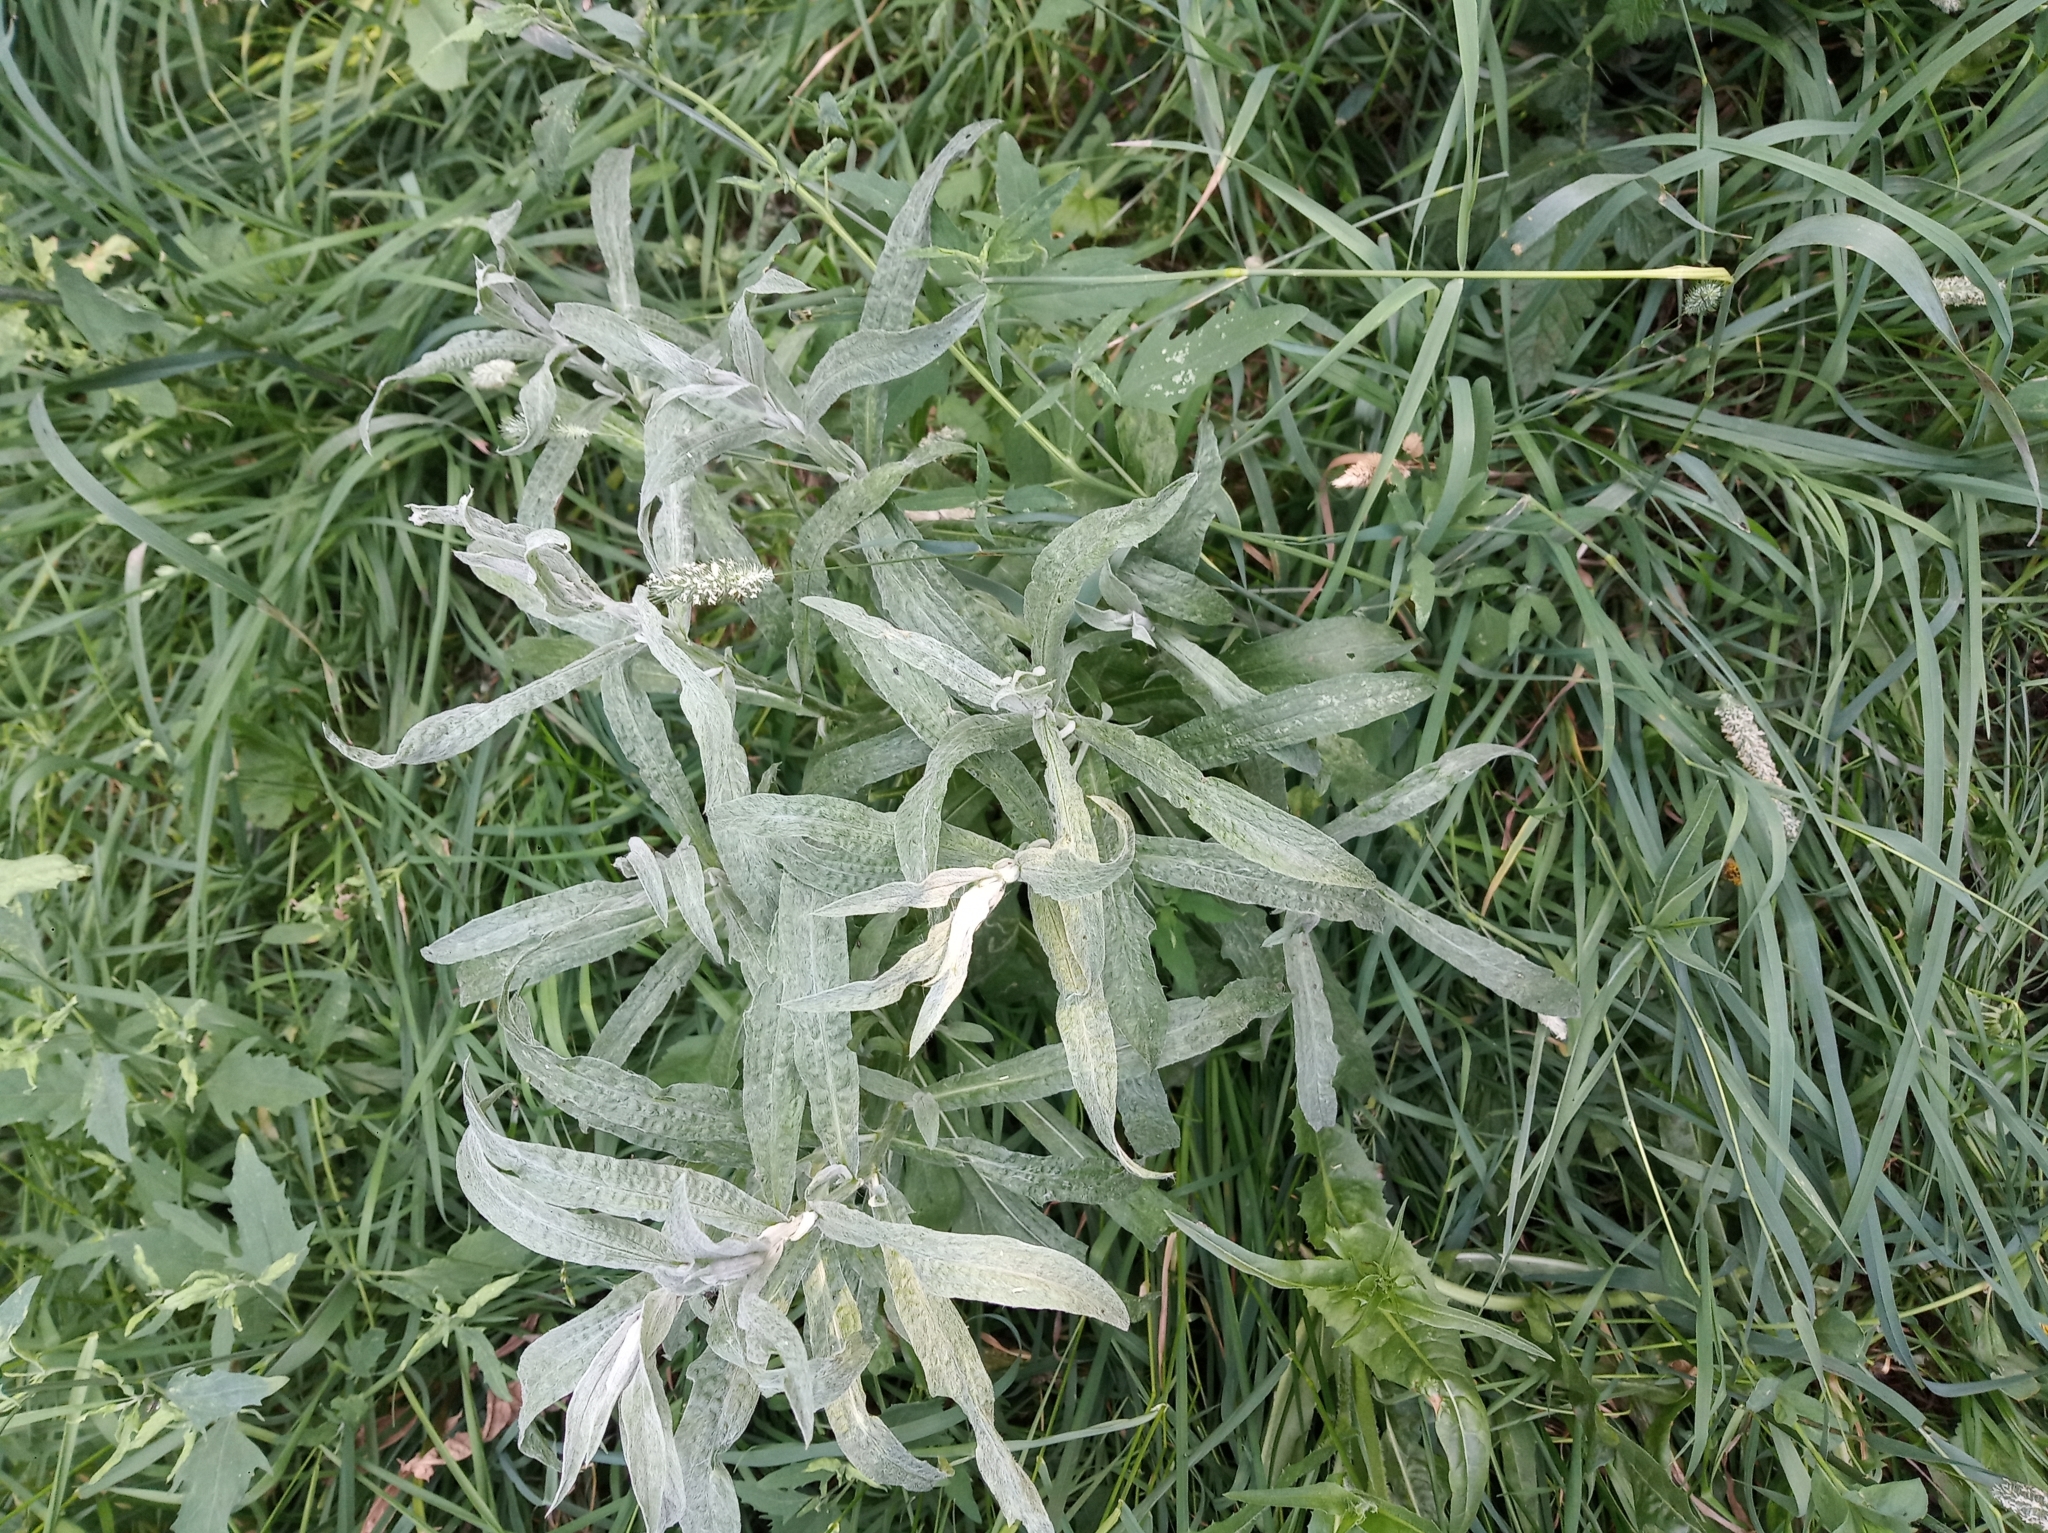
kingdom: Plantae
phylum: Tracheophyta
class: Magnoliopsida
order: Asterales
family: Asteraceae
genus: Centaurea
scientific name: Centaurea jacea
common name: Brown knapweed
